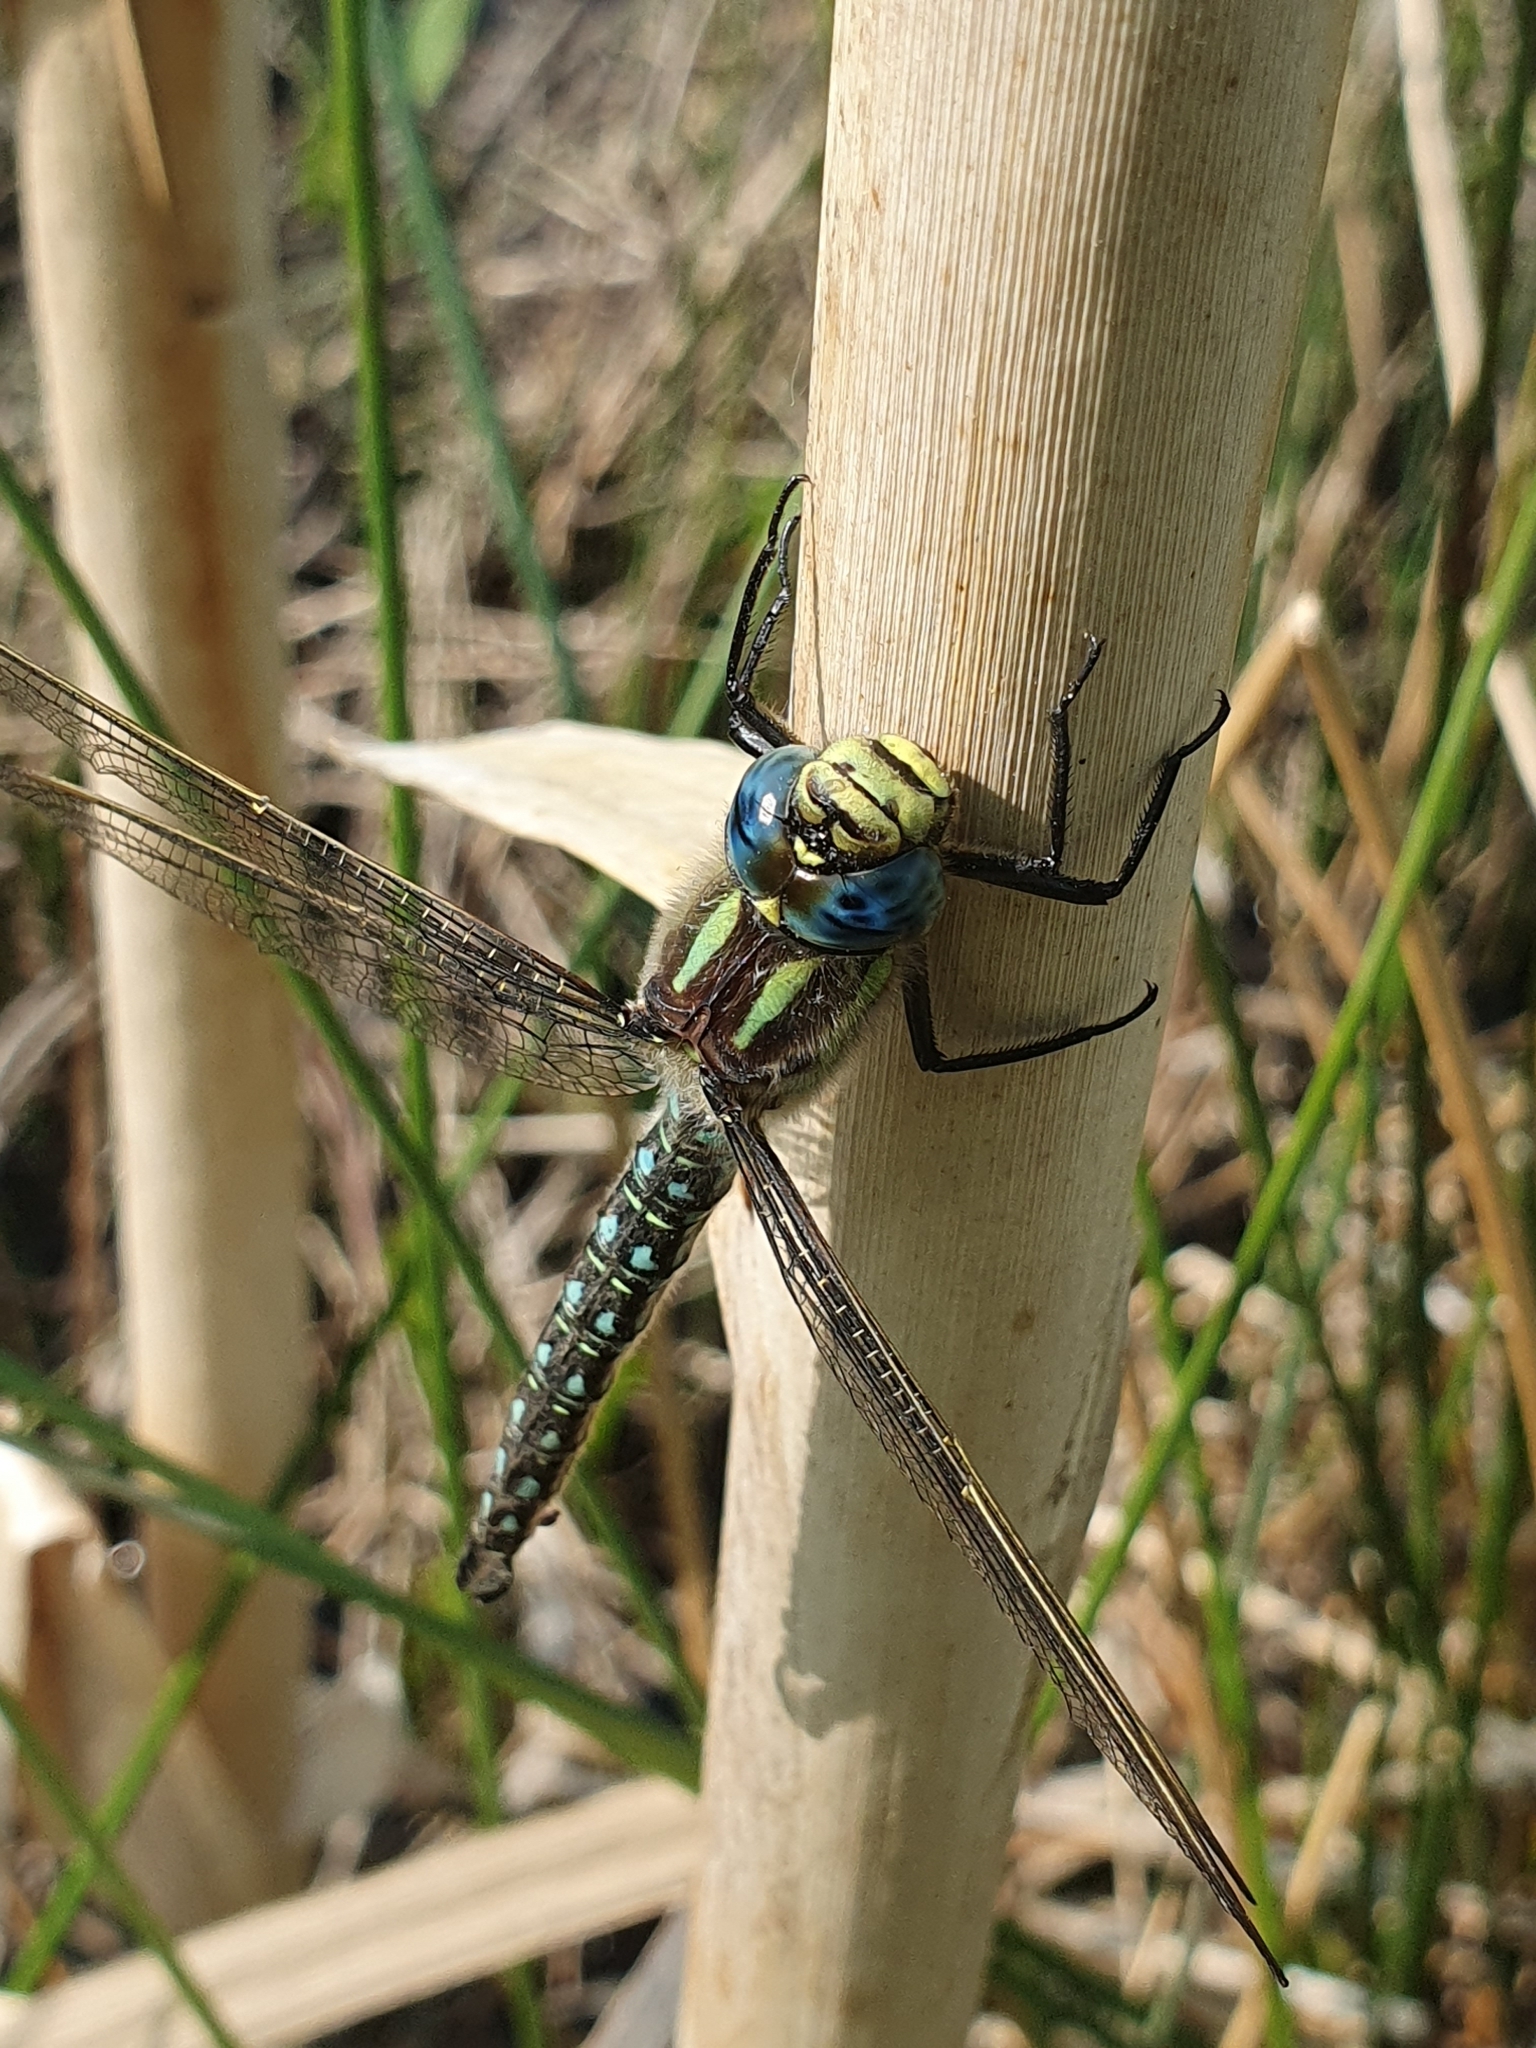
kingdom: Animalia
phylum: Arthropoda
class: Insecta
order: Odonata
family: Aeshnidae
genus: Brachytron
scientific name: Brachytron pratense
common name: Hairy hawker
